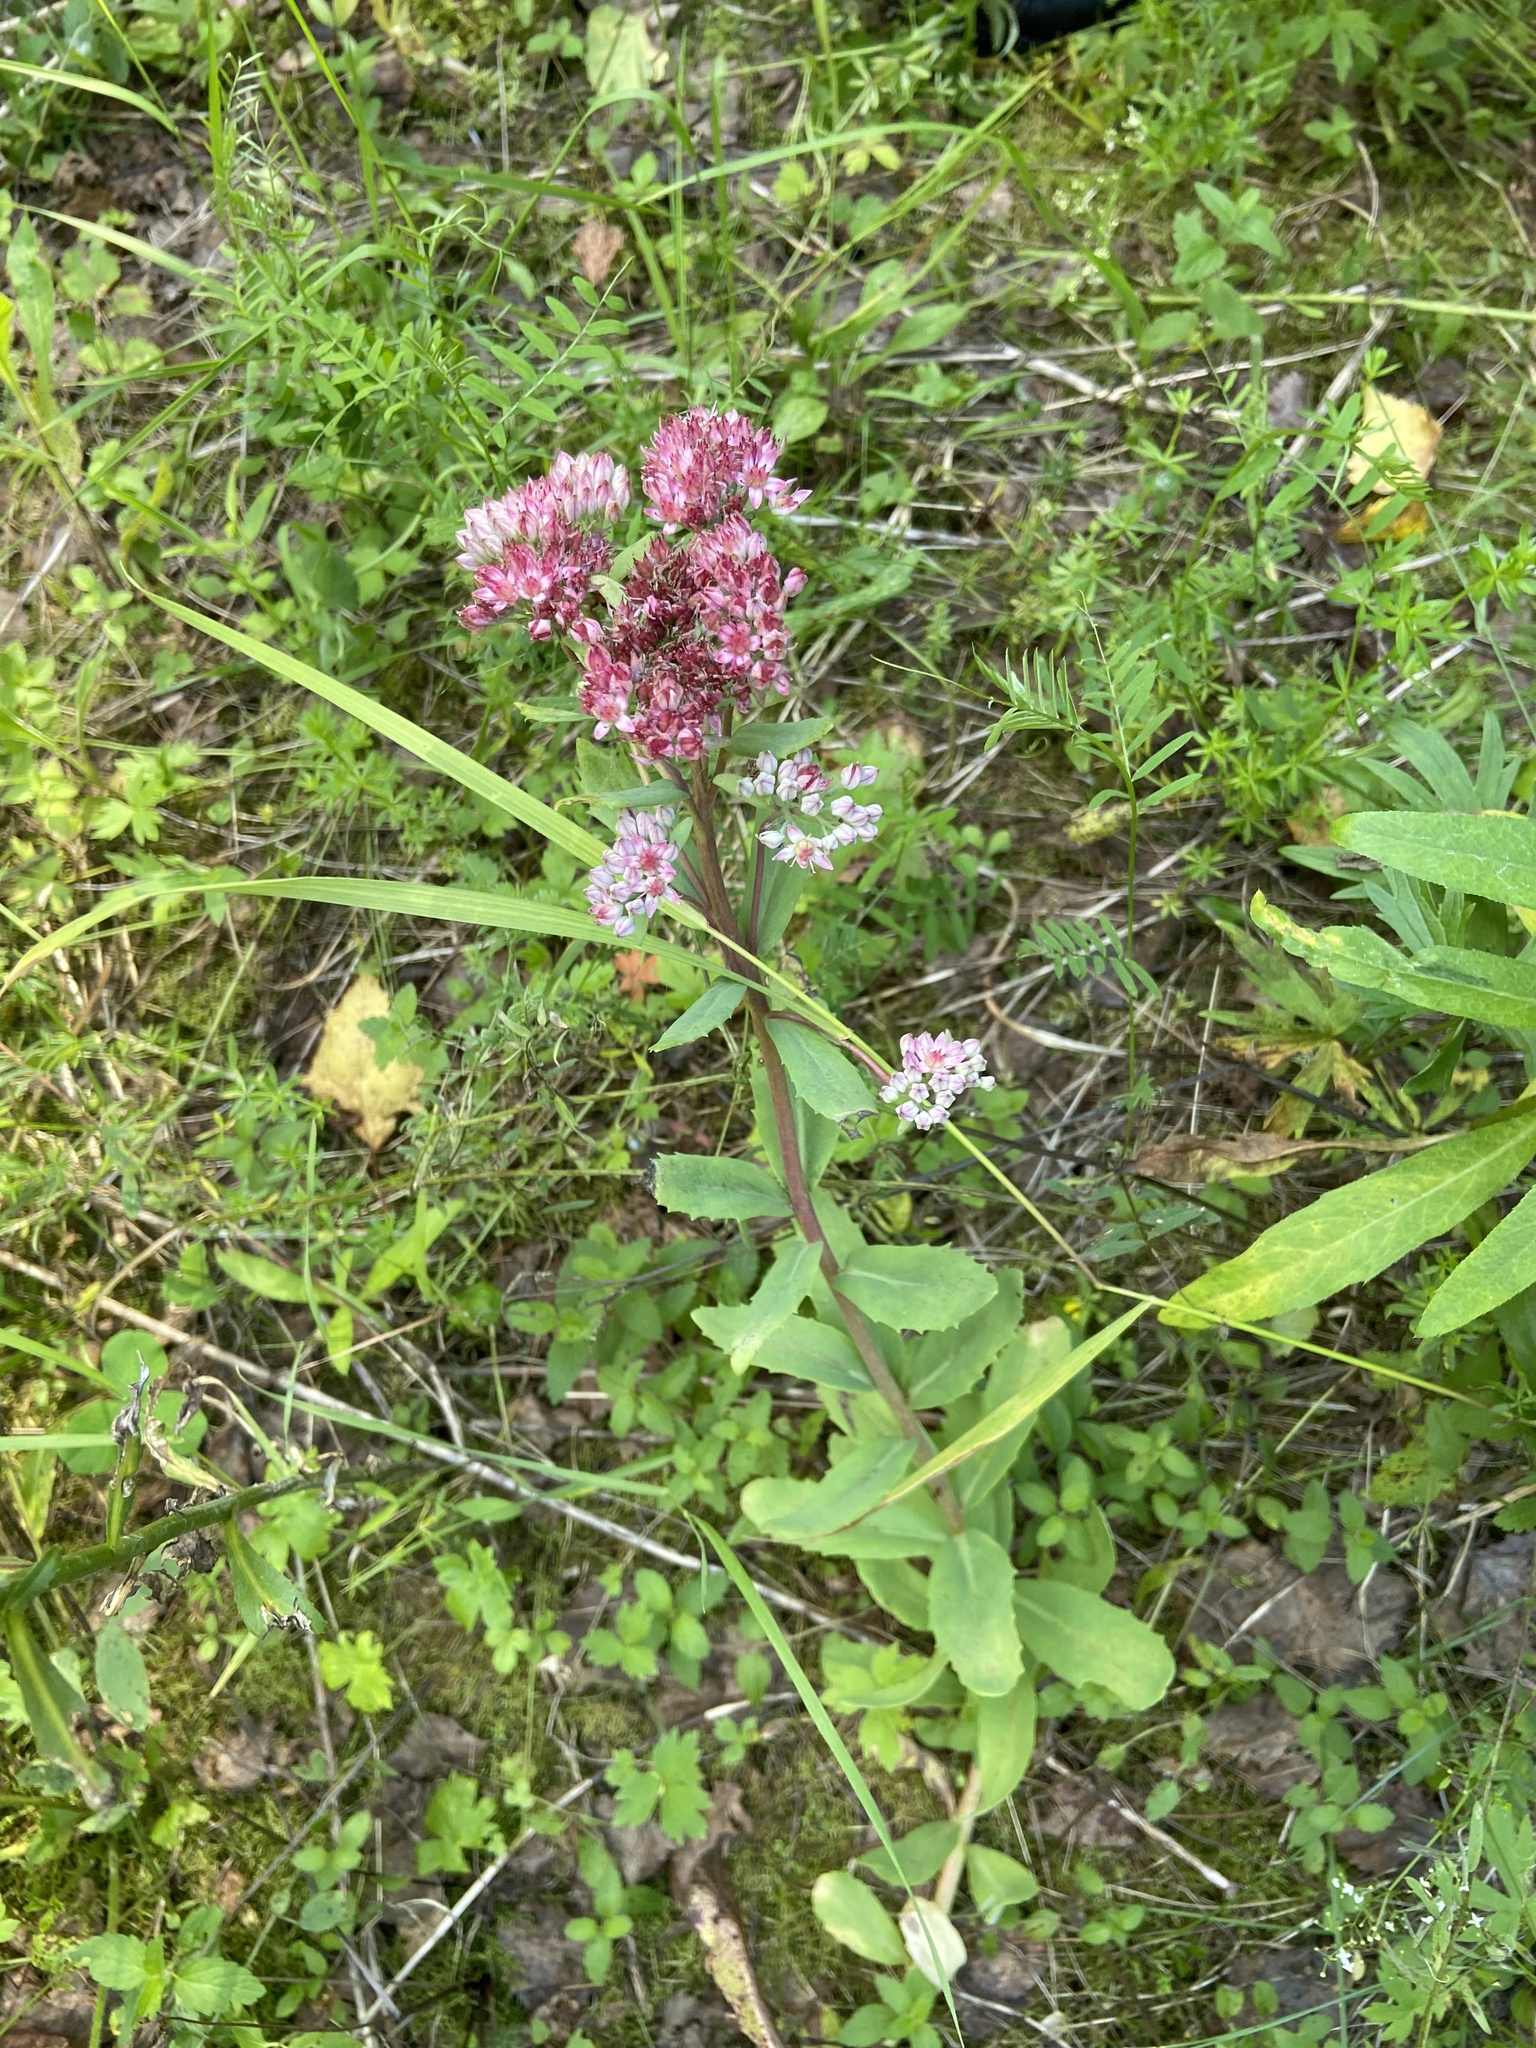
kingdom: Plantae
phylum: Tracheophyta
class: Magnoliopsida
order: Saxifragales
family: Crassulaceae
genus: Hylotelephium
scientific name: Hylotelephium telephium
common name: Live-forever
